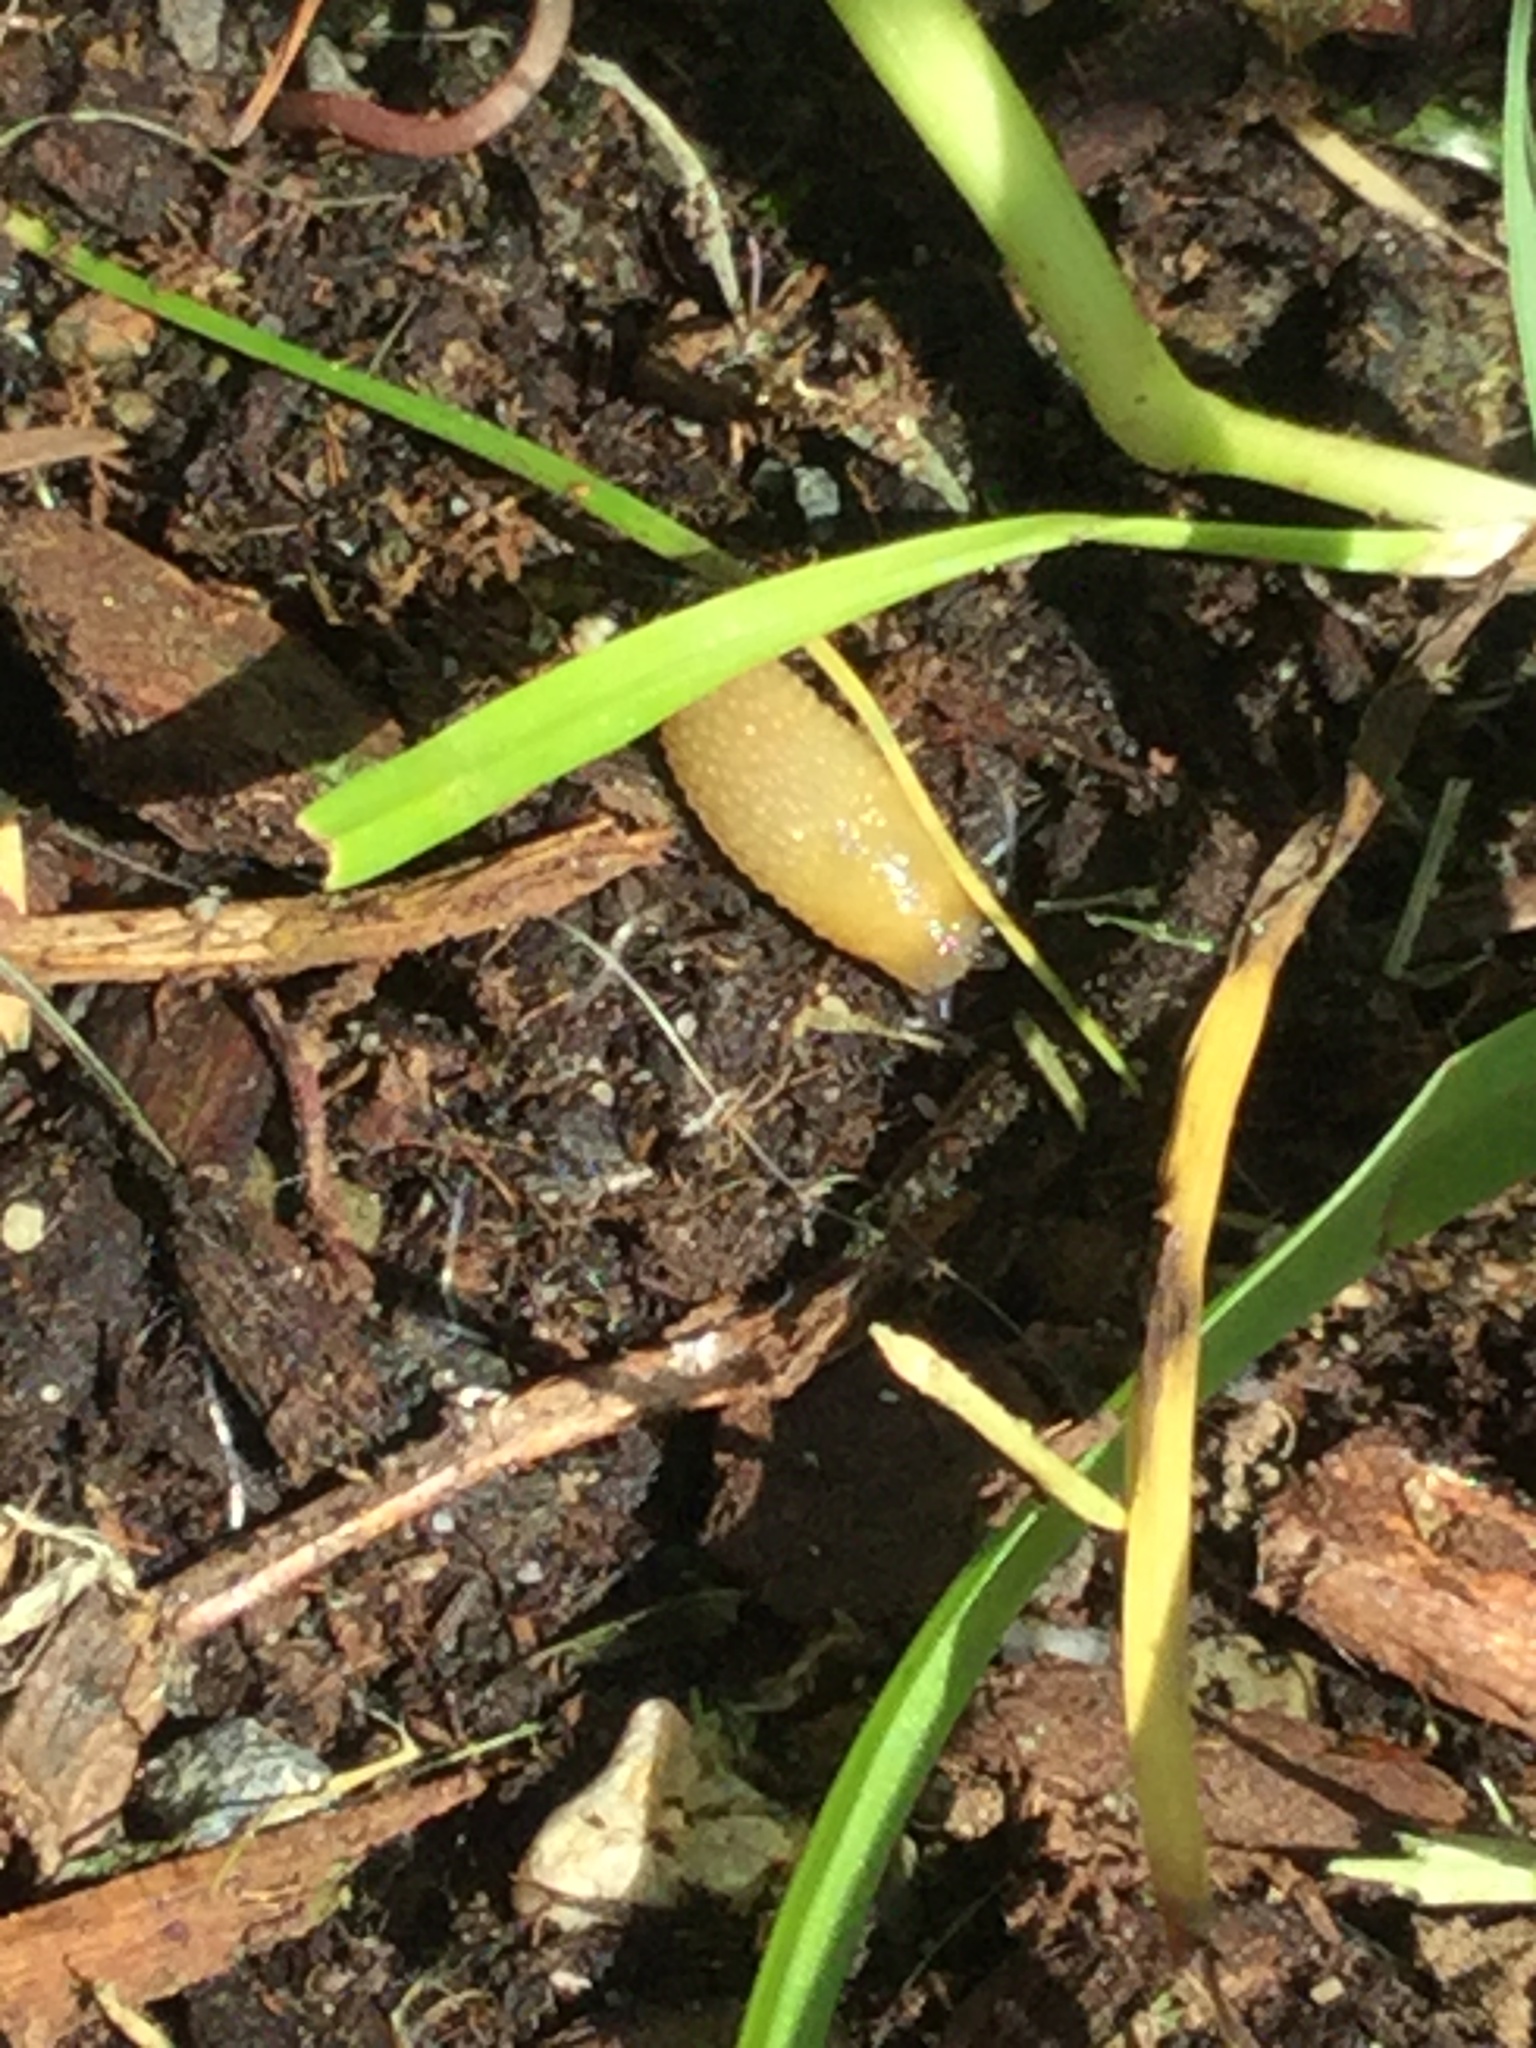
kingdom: Animalia
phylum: Mollusca
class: Gastropoda
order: Stylommatophora
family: Arionidae
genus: Arion
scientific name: Arion intermedius
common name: Hedgehog slug
